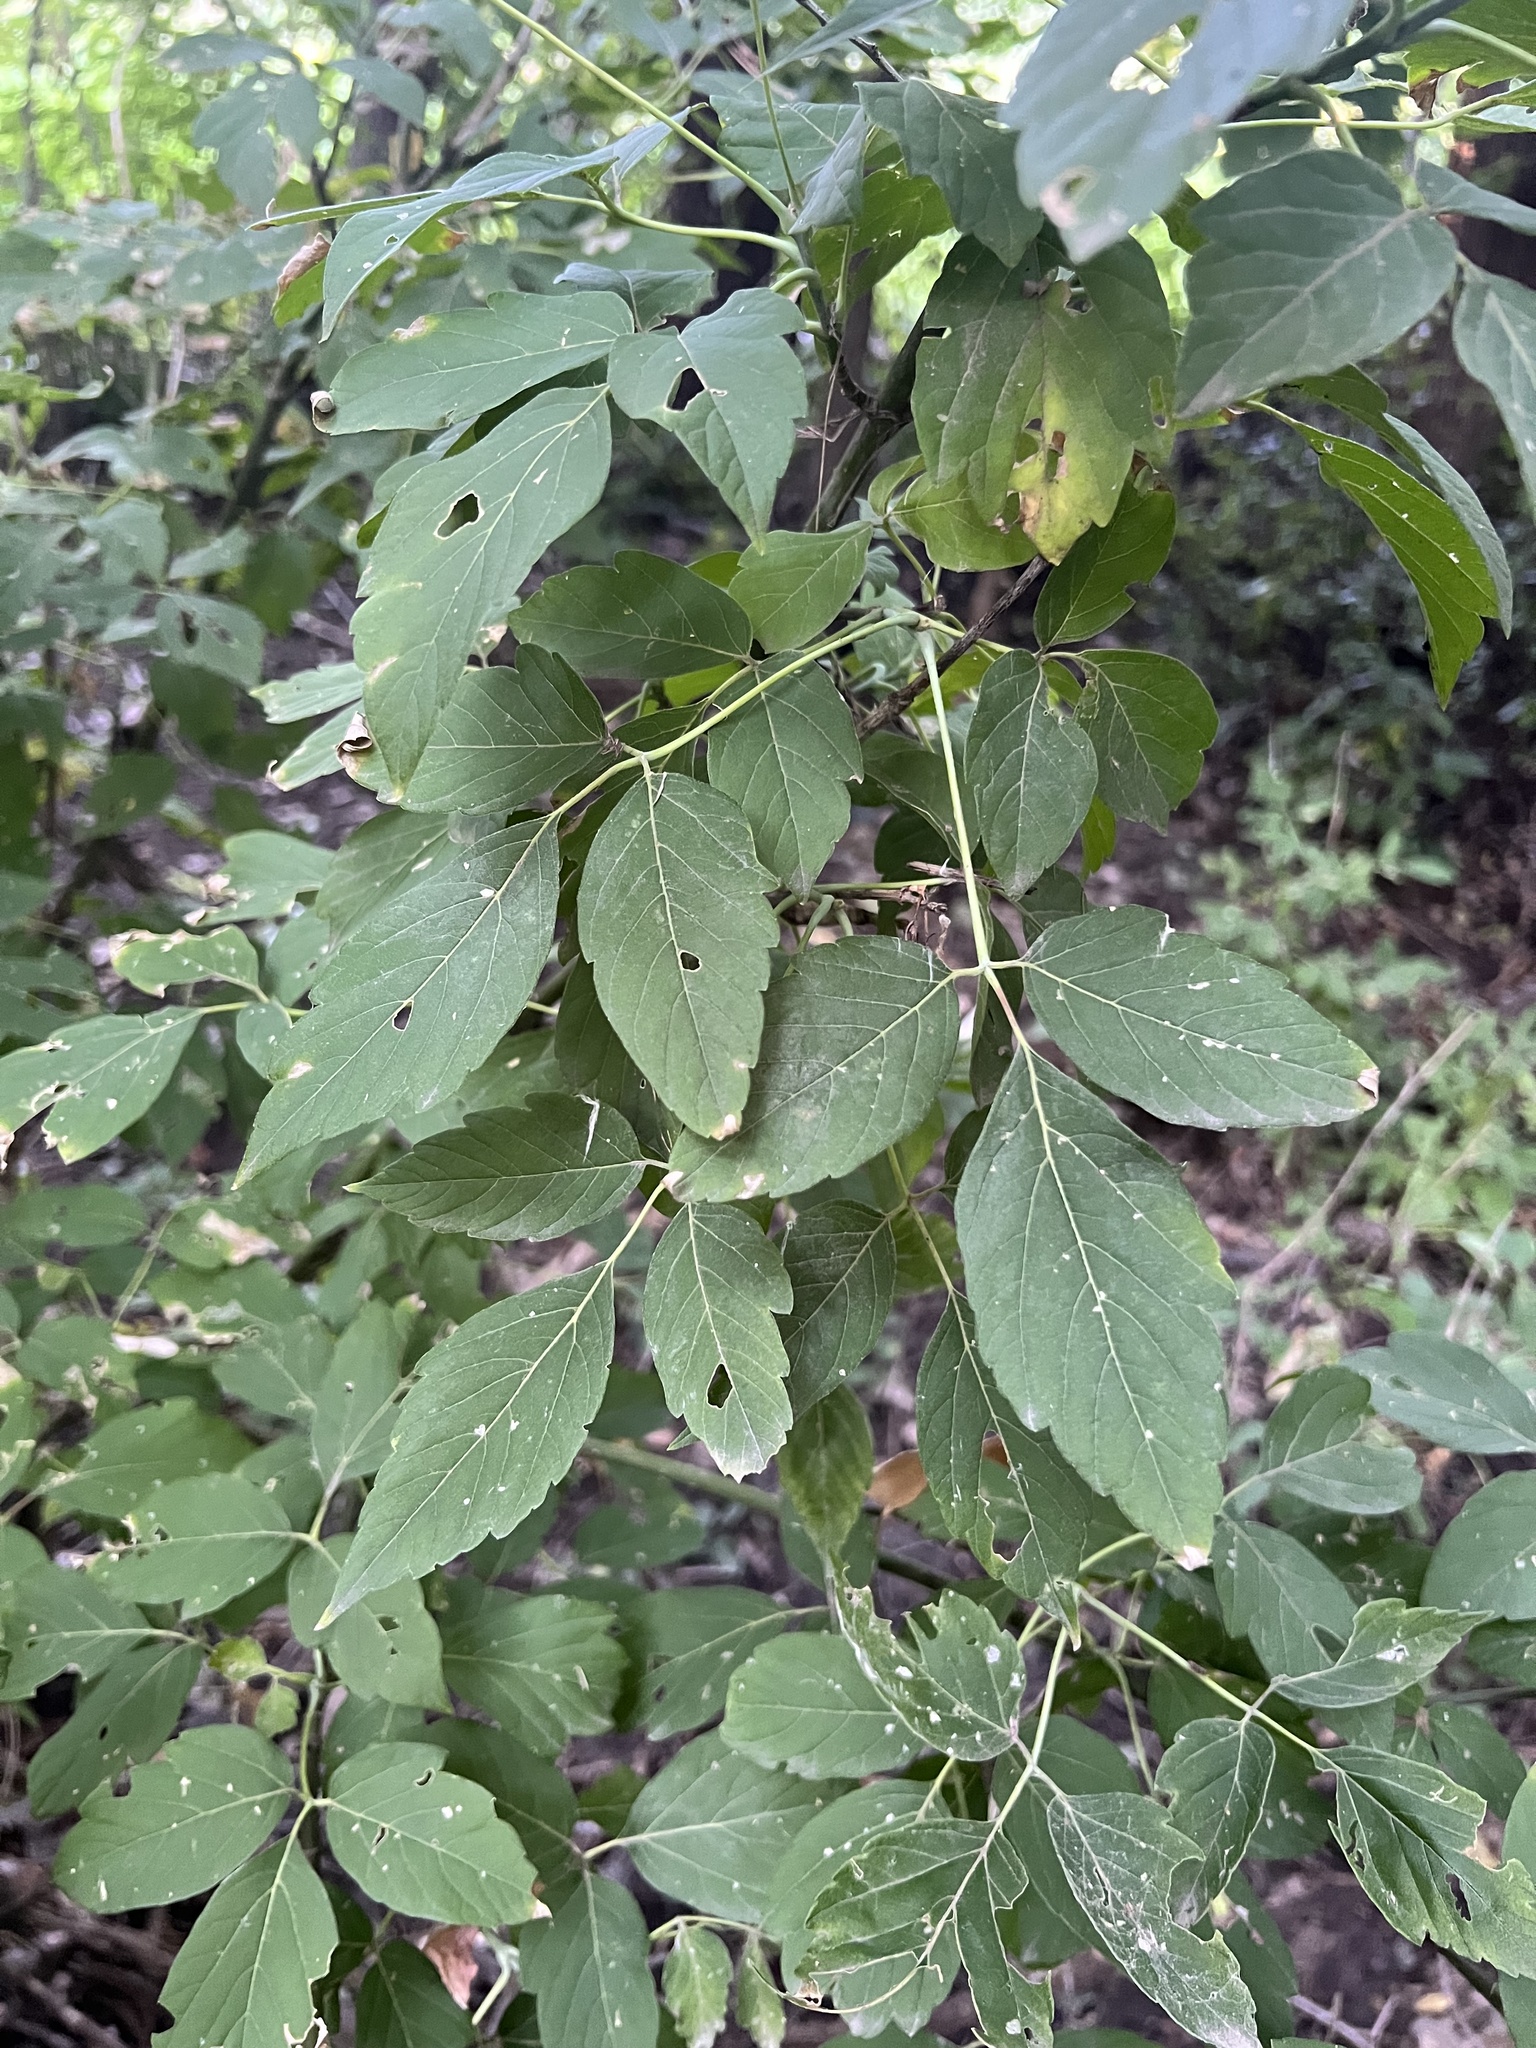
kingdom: Plantae
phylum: Tracheophyta
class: Magnoliopsida
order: Sapindales
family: Sapindaceae
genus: Acer
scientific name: Acer negundo
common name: Ashleaf maple
